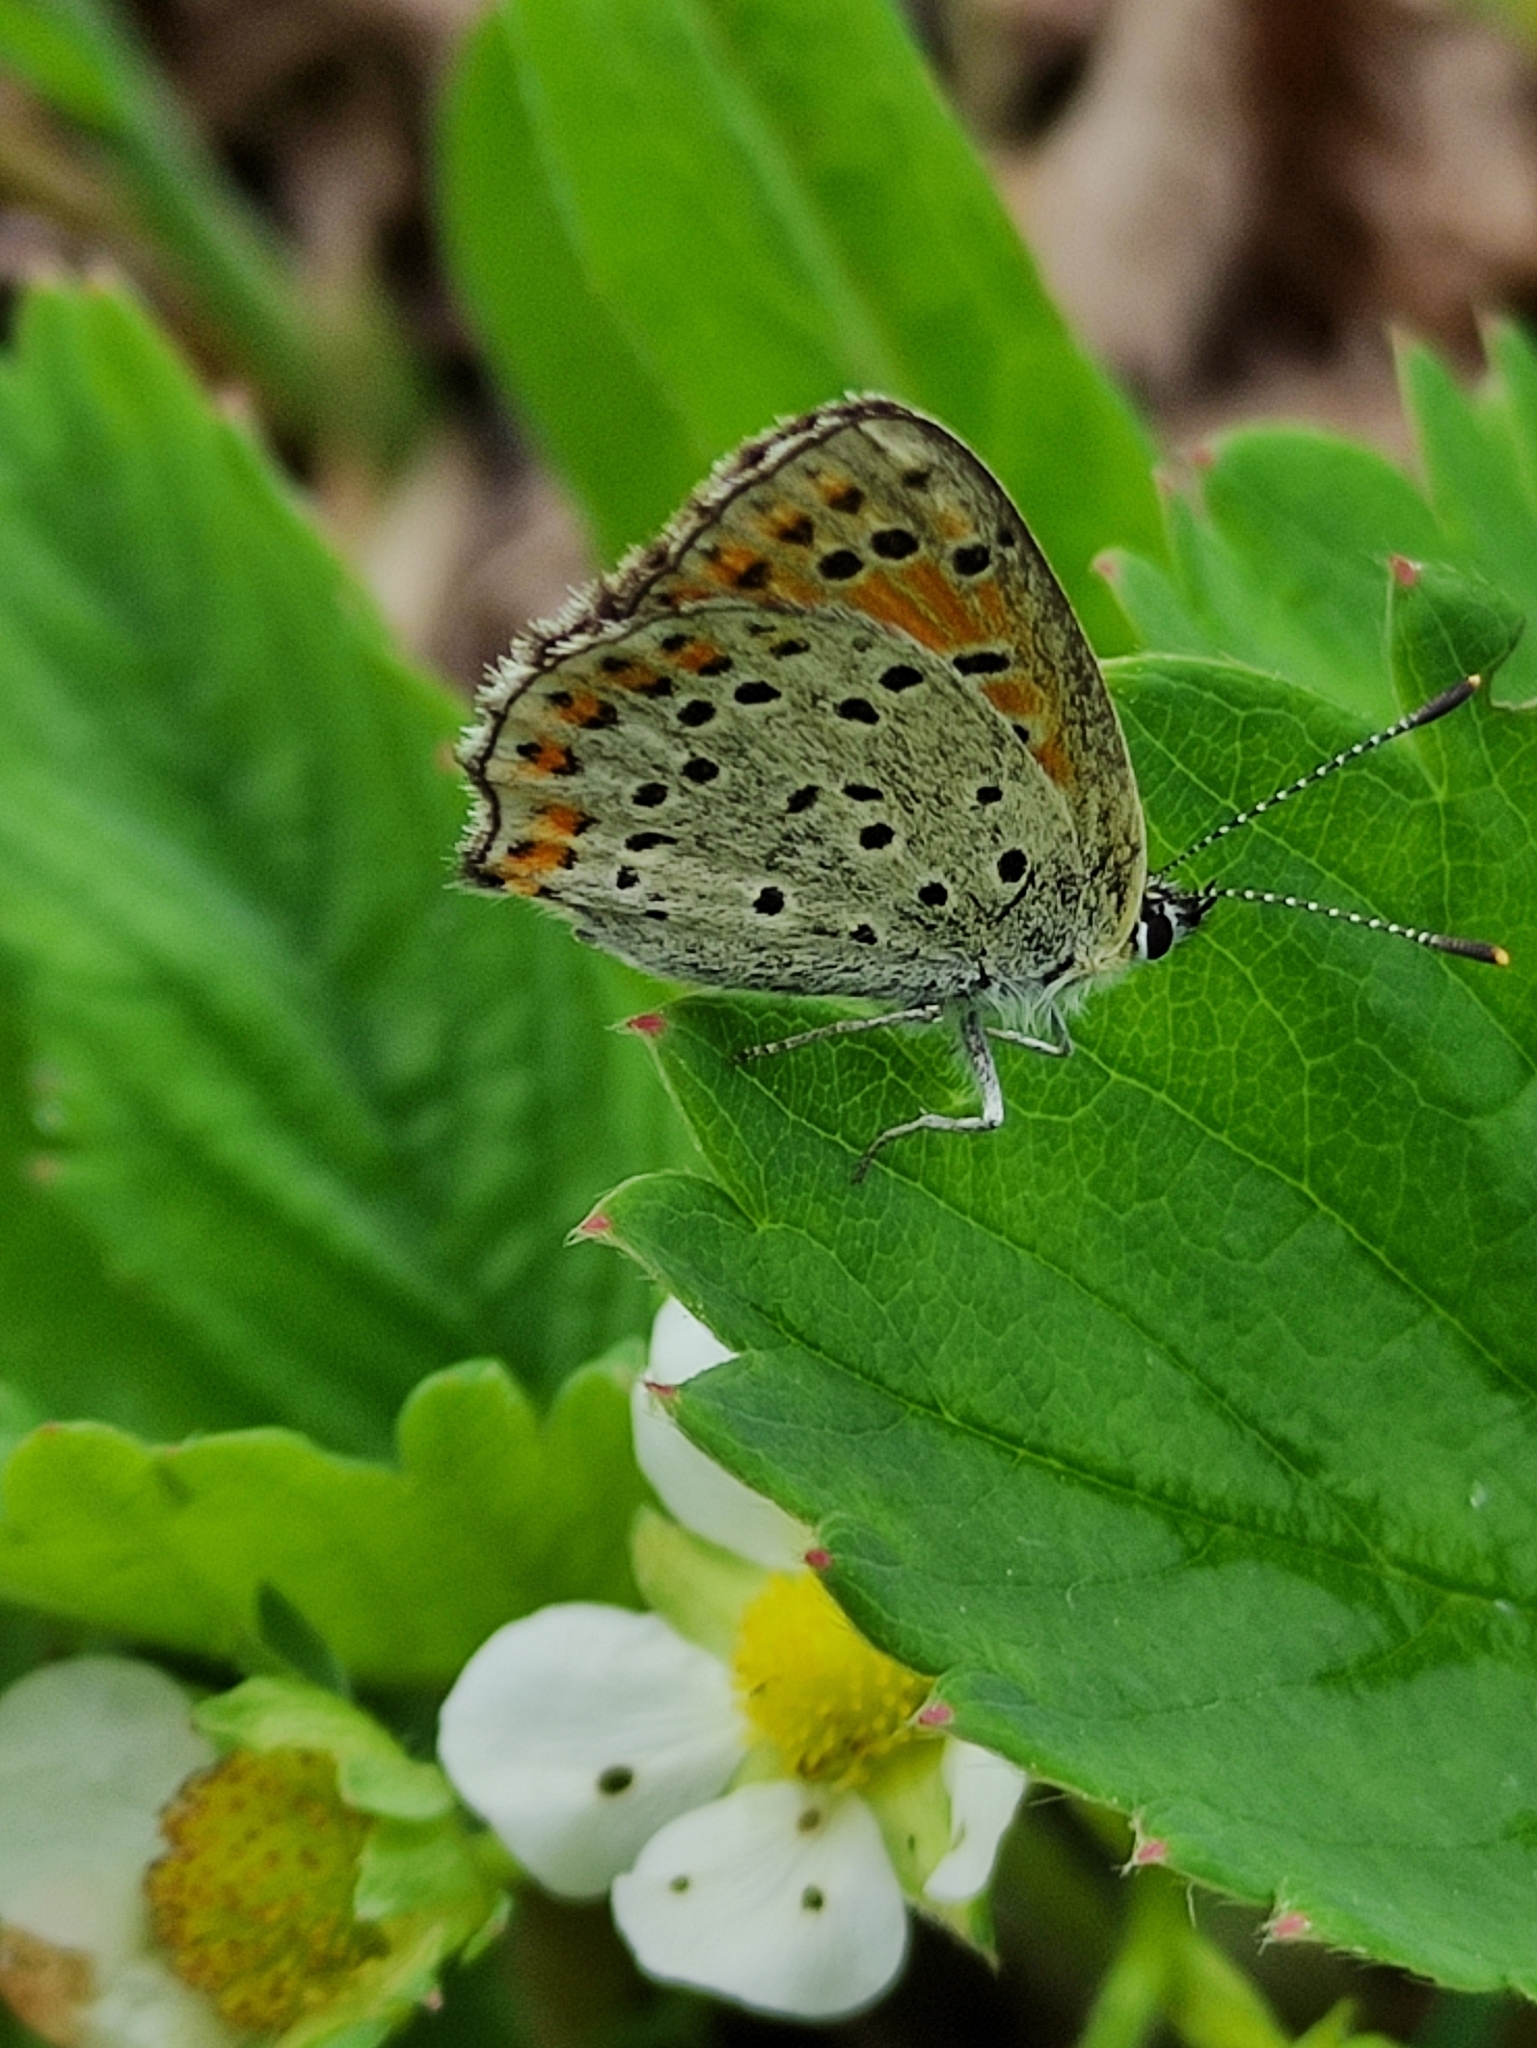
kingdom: Animalia
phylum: Arthropoda
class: Insecta
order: Lepidoptera
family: Lycaenidae
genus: Loweia
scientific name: Loweia tityrus
